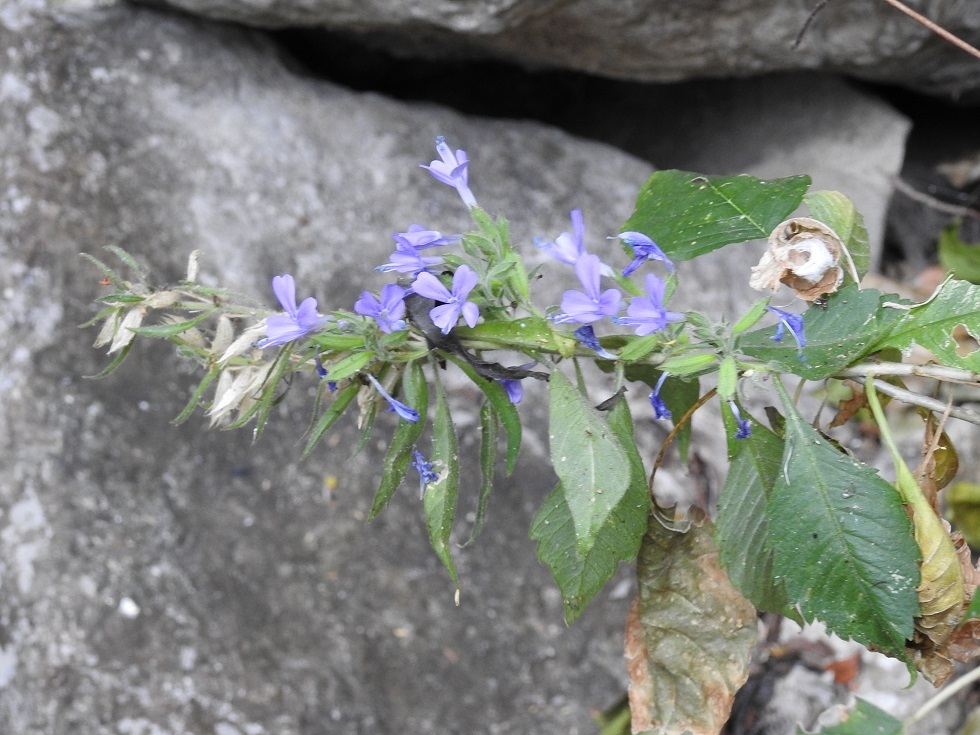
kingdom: Plantae
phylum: Tracheophyta
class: Magnoliopsida
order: Ericales
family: Polemoniaceae
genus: Bonplandia
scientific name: Bonplandia geminiflora
